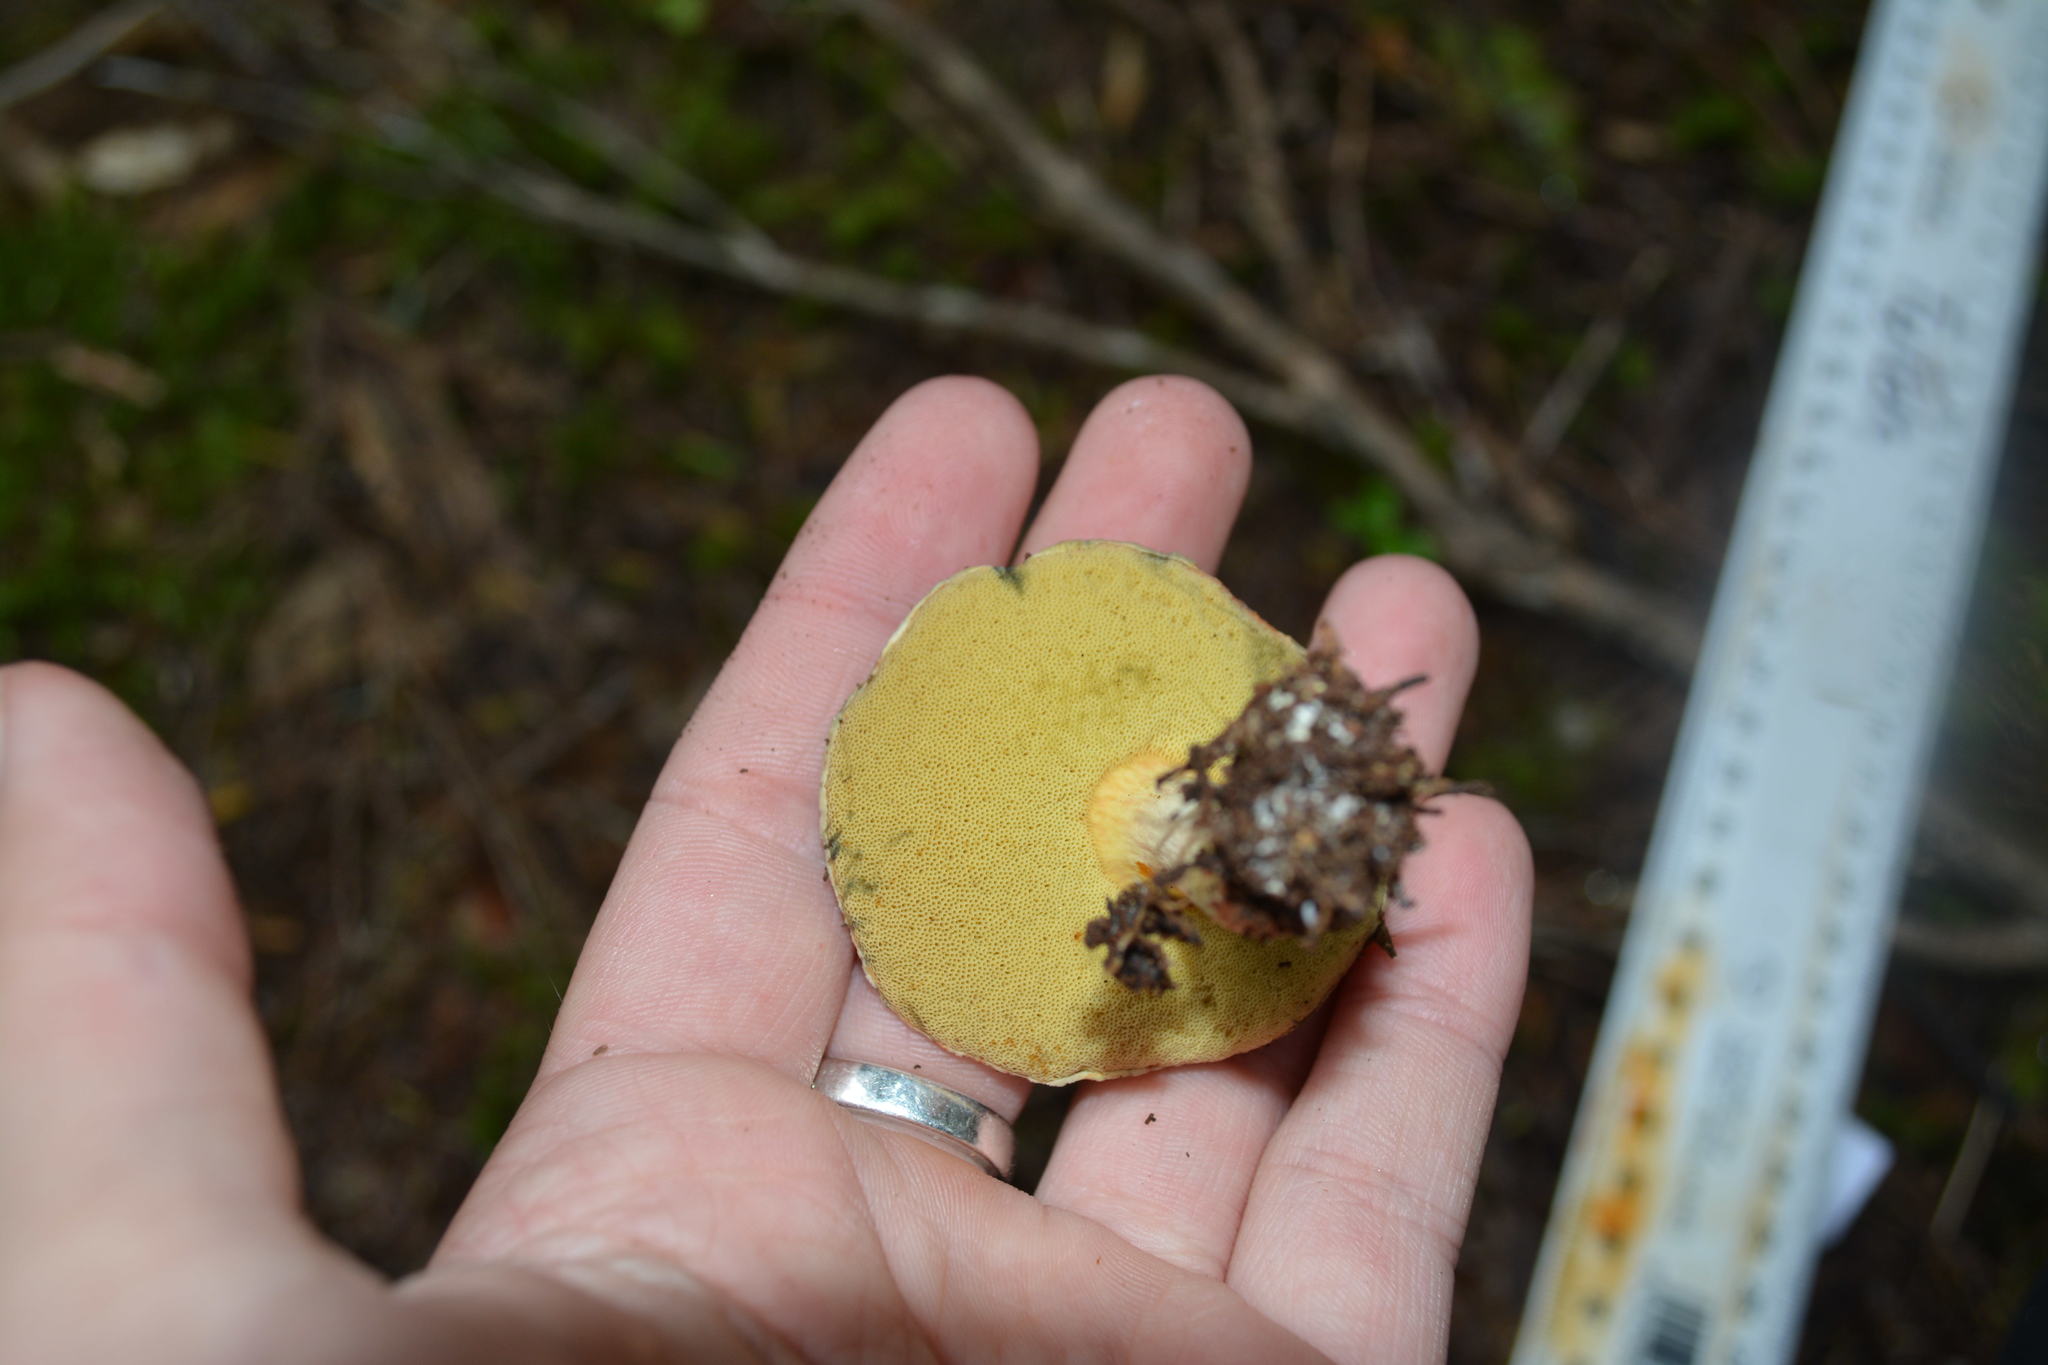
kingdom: Fungi
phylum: Basidiomycota
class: Agaricomycetes
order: Boletales
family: Boletaceae
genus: Xerocomus
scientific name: Xerocomus leptospermi
